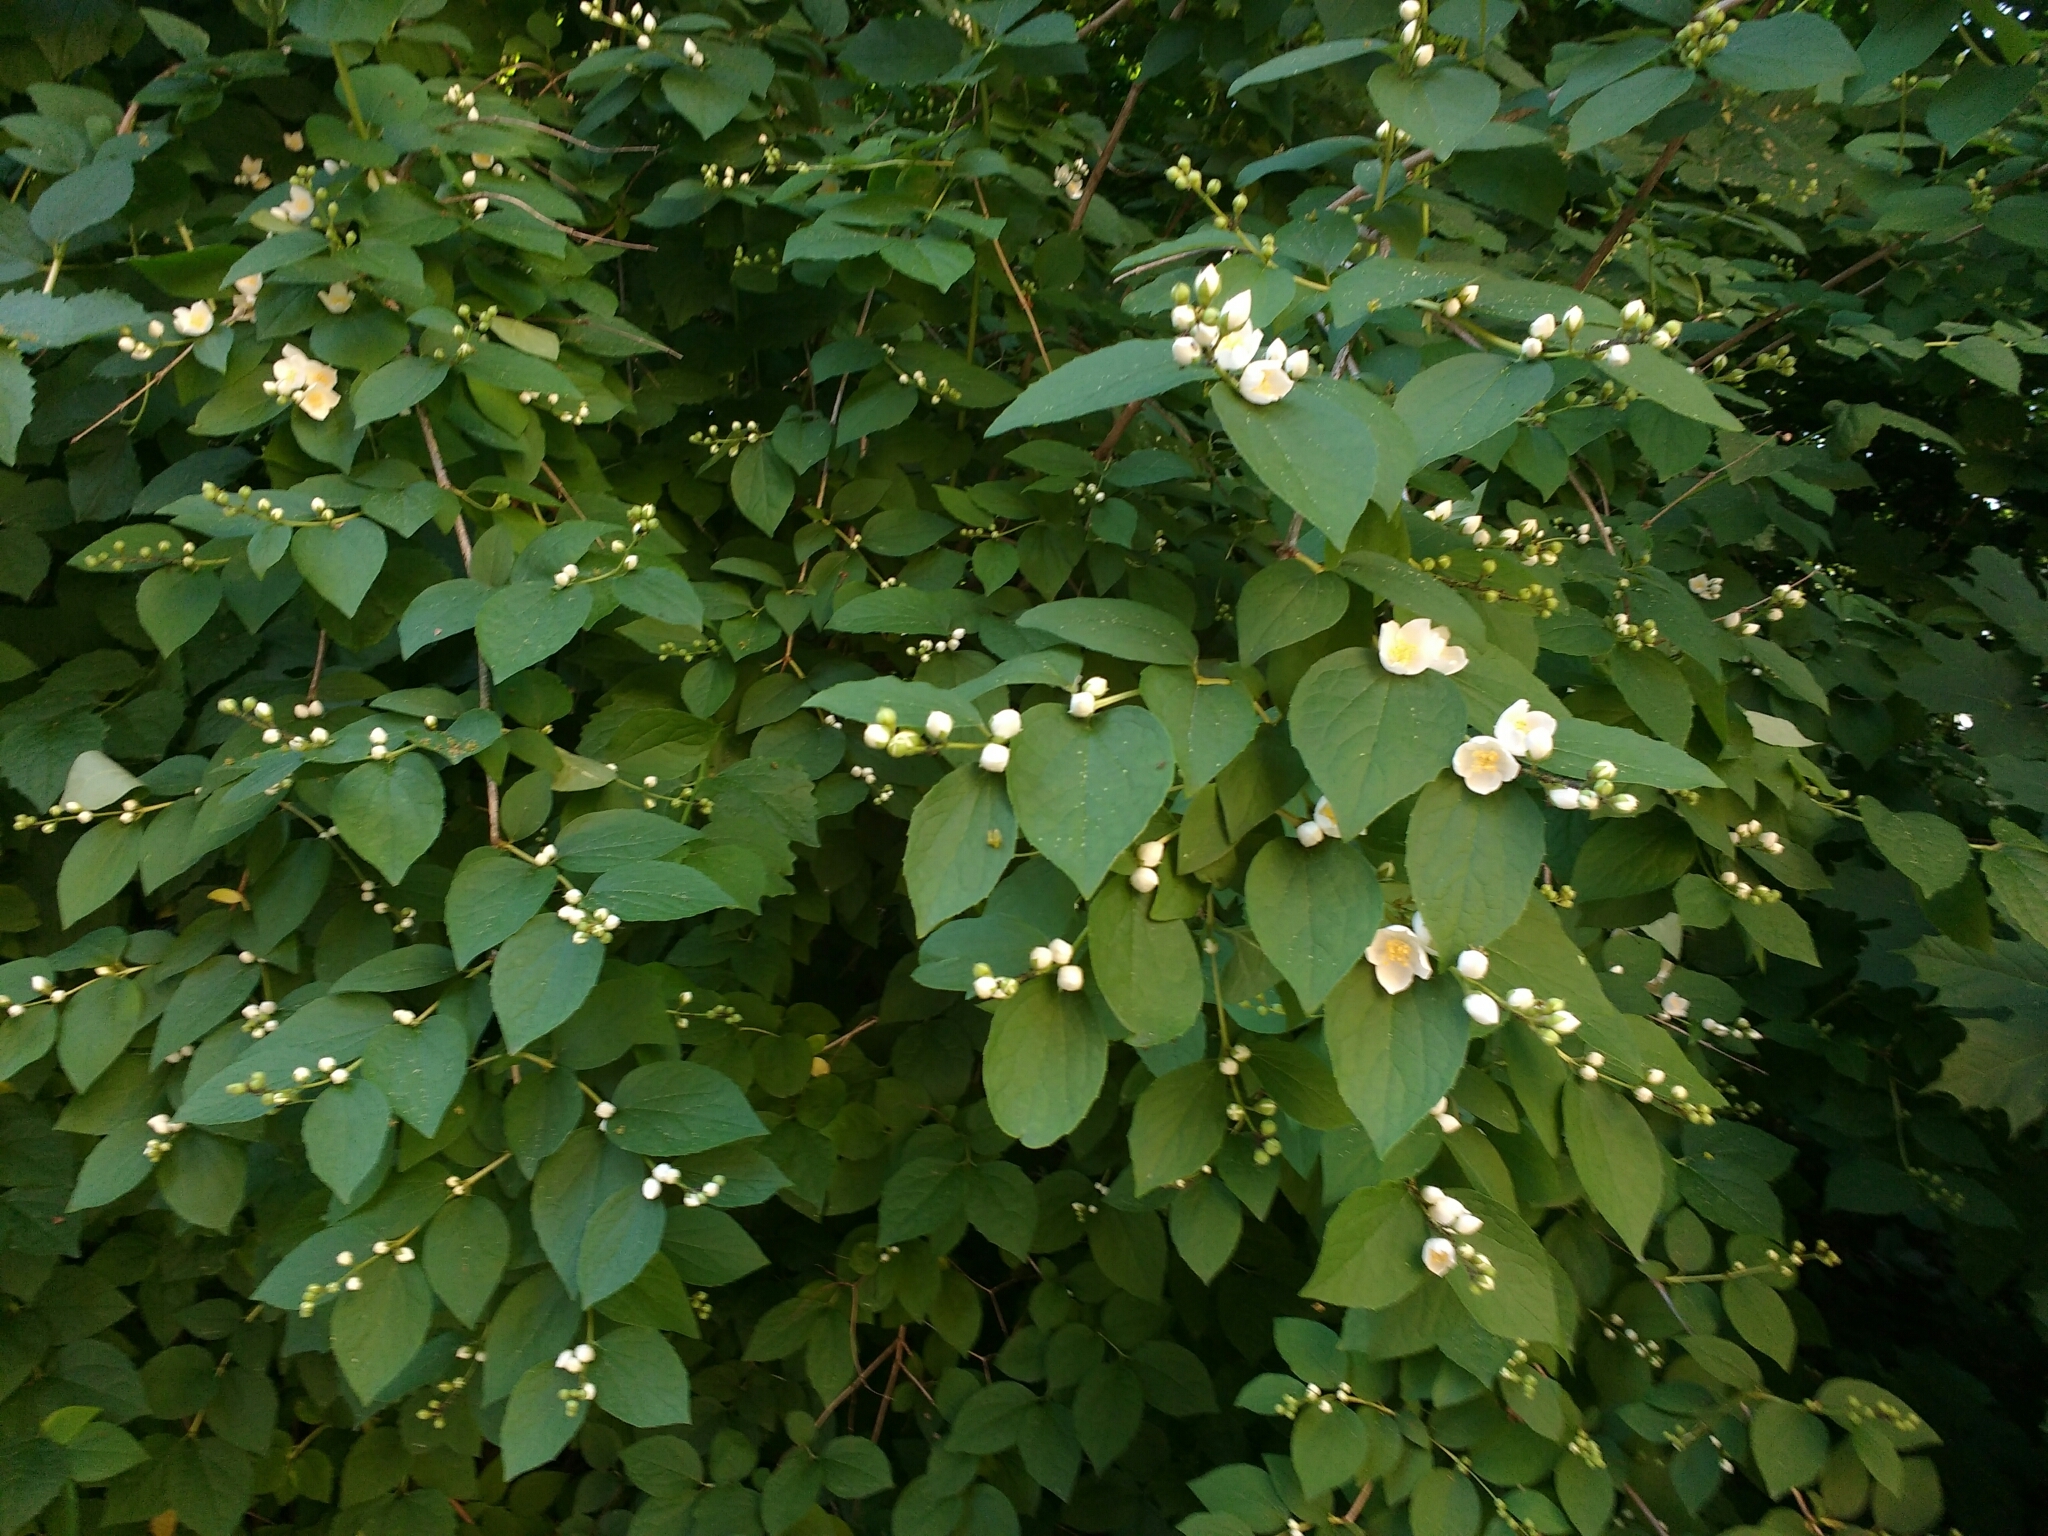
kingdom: Plantae
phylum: Tracheophyta
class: Magnoliopsida
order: Cornales
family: Hydrangeaceae
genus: Philadelphus
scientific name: Philadelphus coronarius
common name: Mock orange
